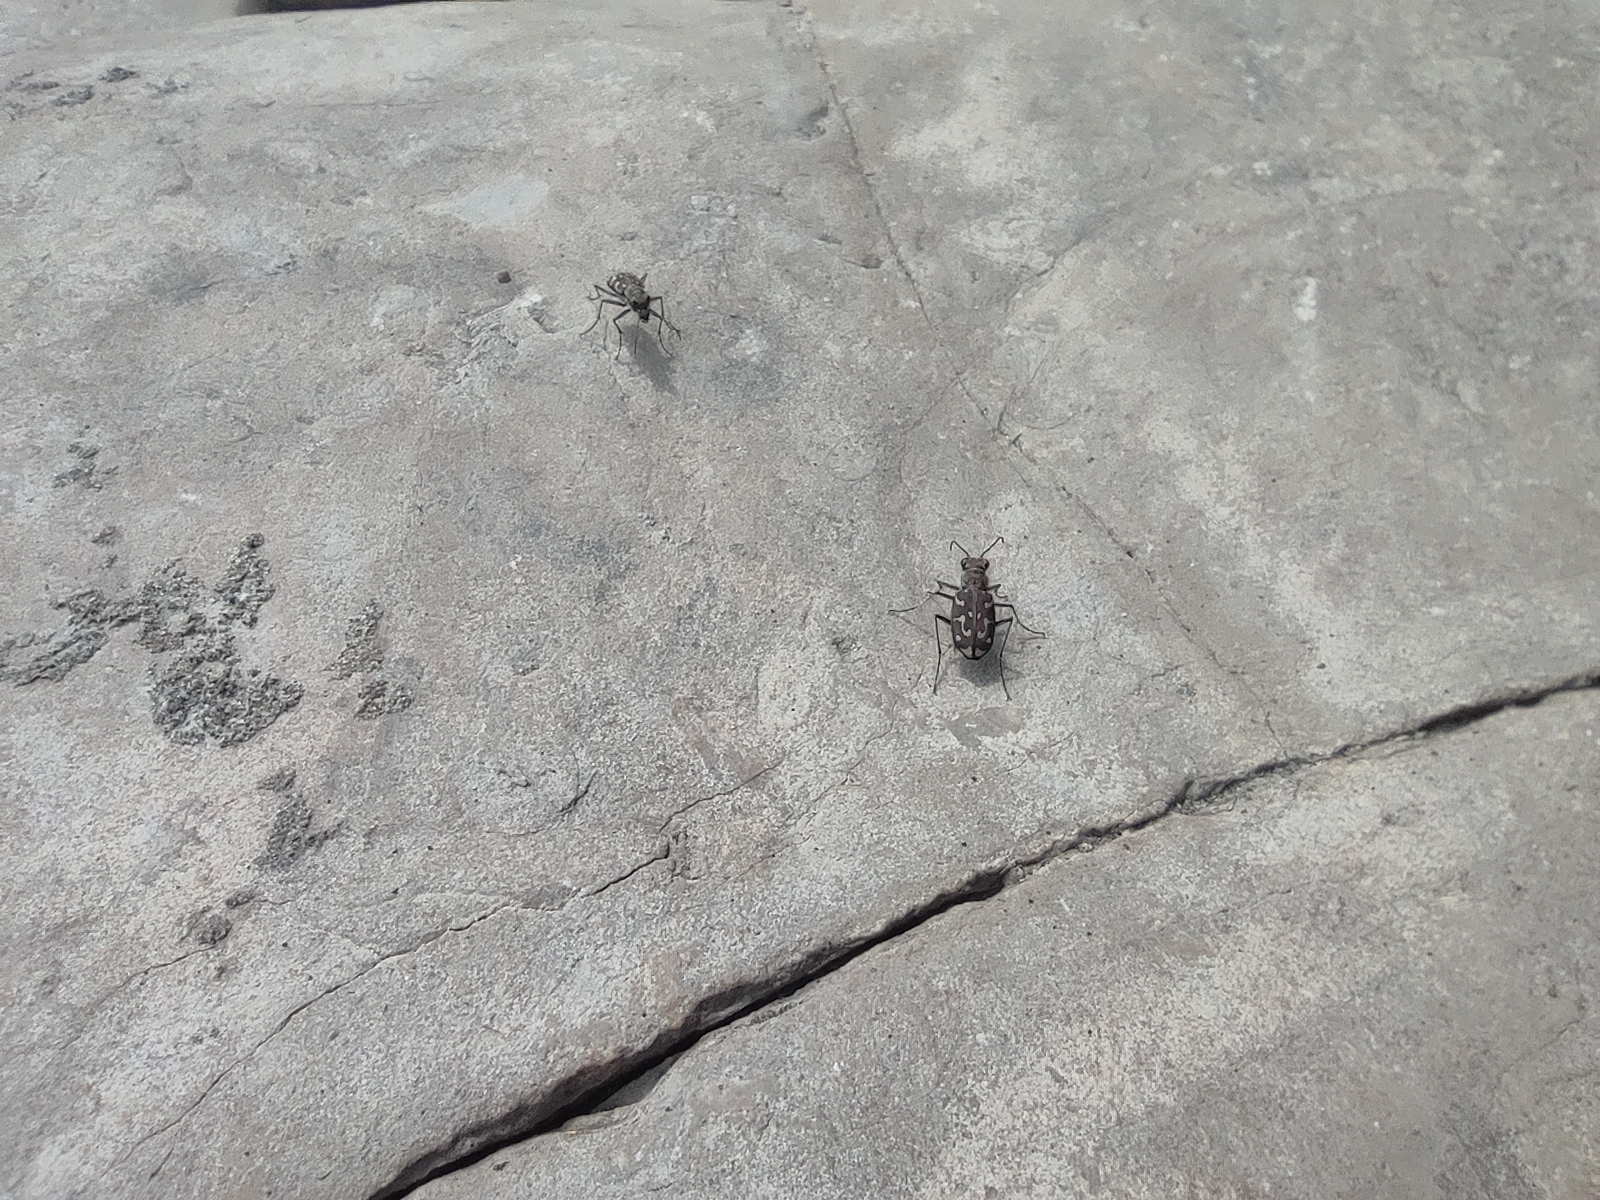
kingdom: Animalia
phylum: Arthropoda
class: Insecta
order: Coleoptera
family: Carabidae
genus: Lophyra
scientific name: Lophyra flexuosa
